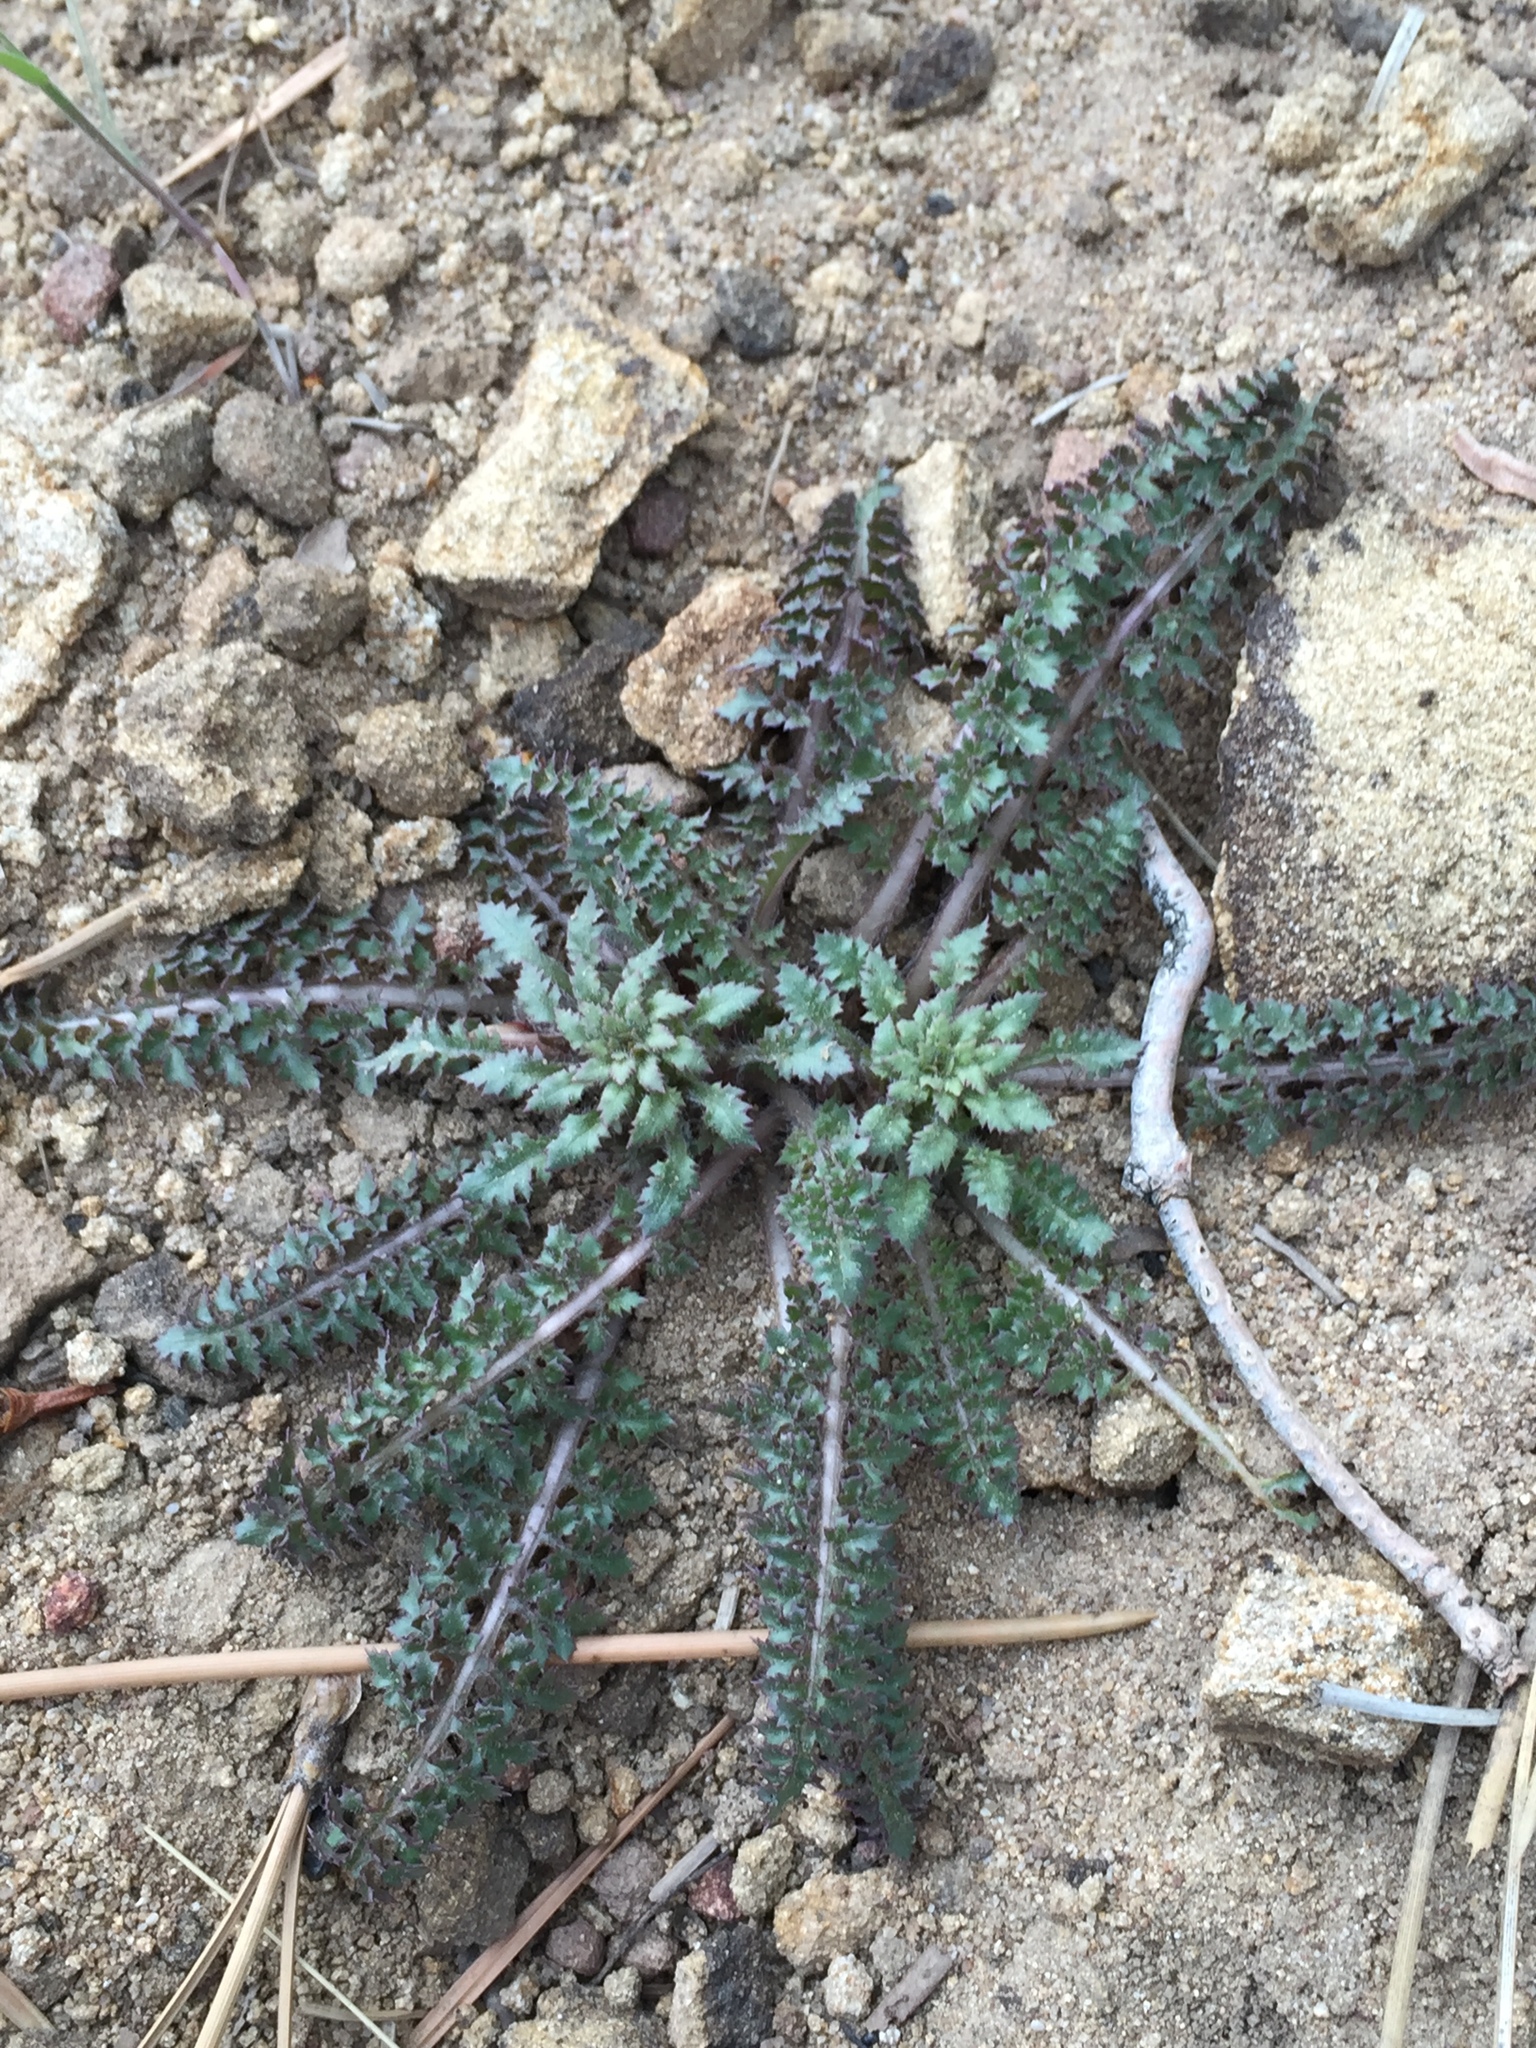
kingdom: Plantae
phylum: Tracheophyta
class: Magnoliopsida
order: Lamiales
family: Orobanchaceae
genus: Pedicularis
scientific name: Pedicularis semibarbata
